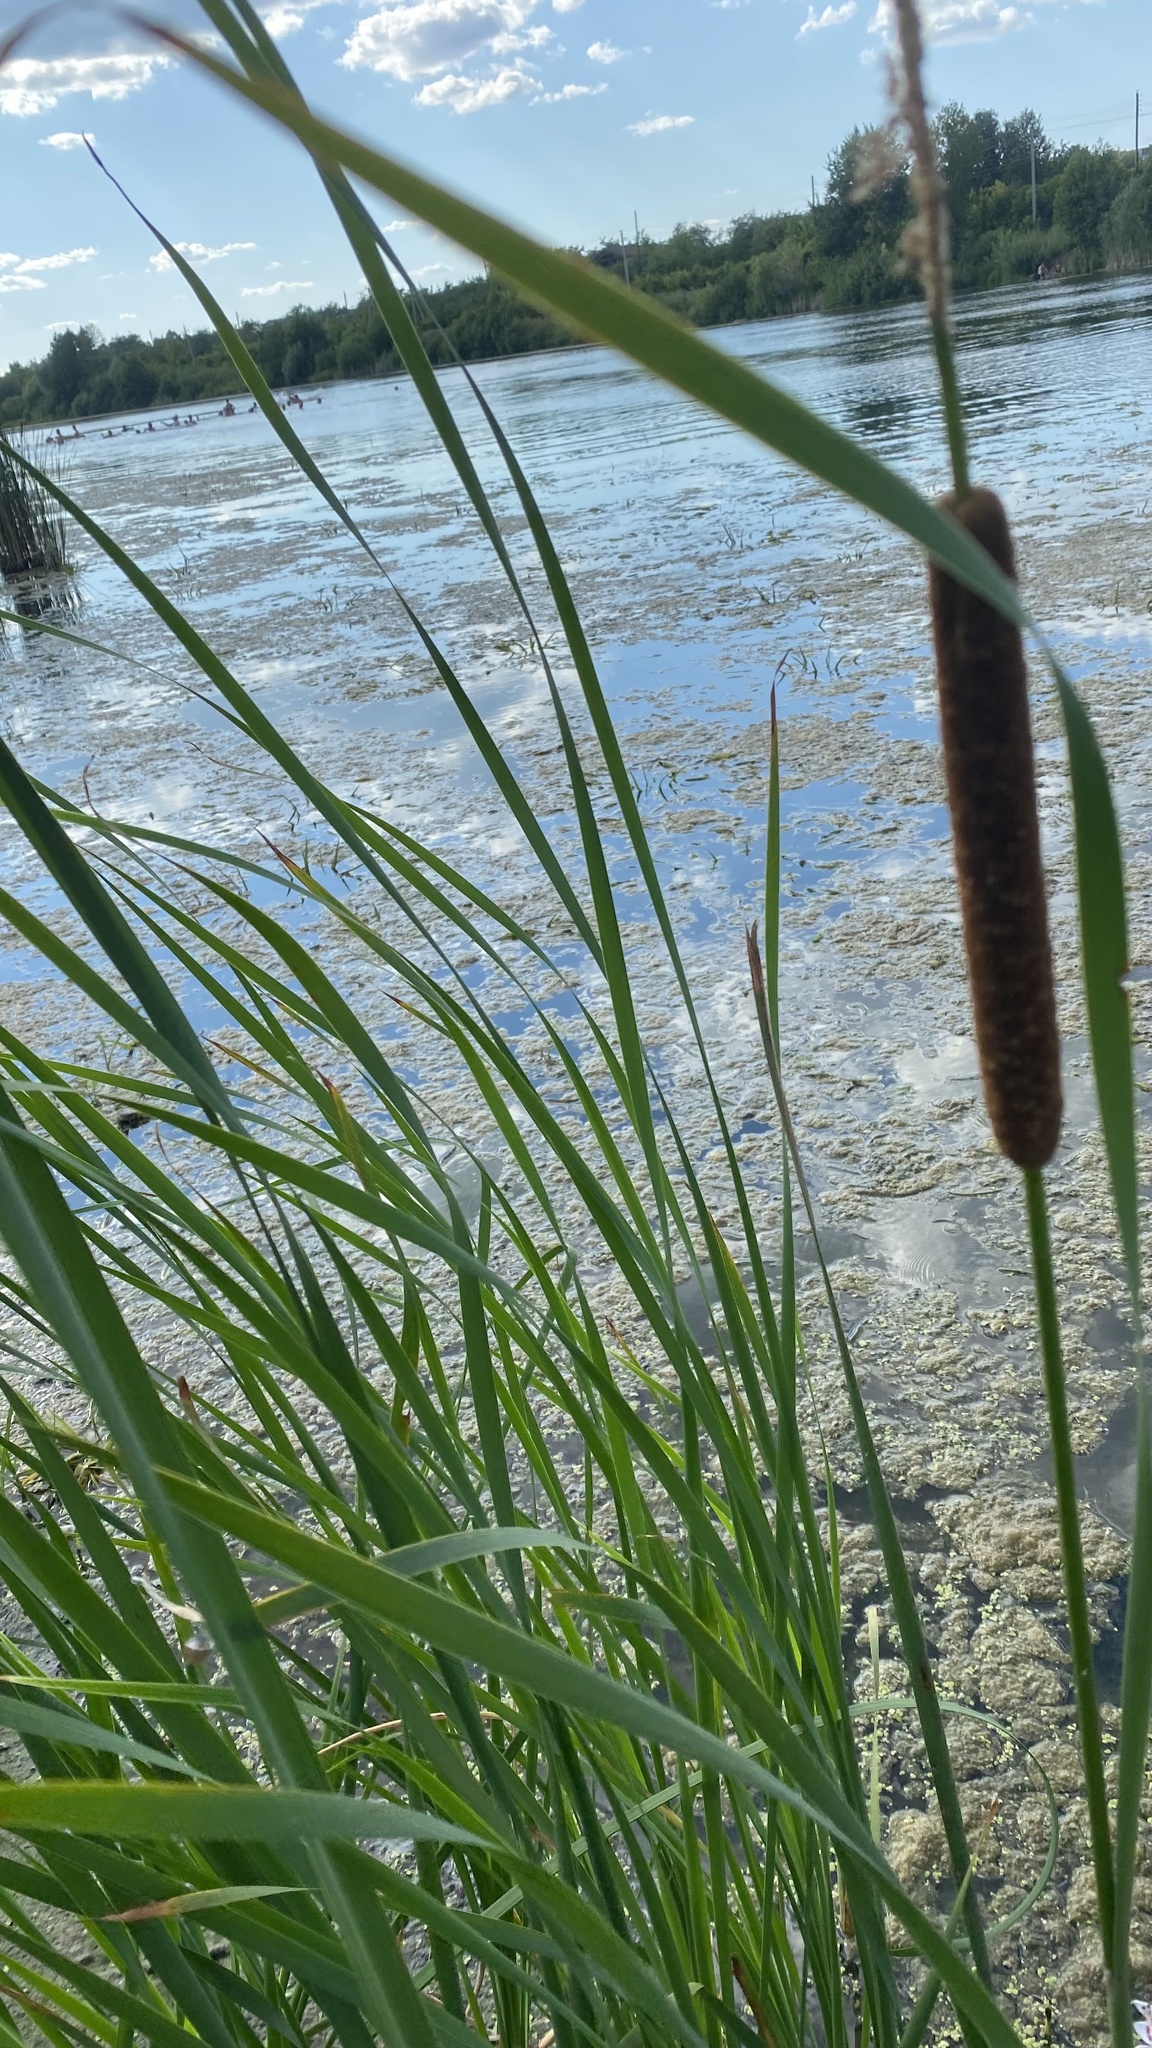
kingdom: Plantae
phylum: Tracheophyta
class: Liliopsida
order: Poales
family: Typhaceae
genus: Typha
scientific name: Typha angustifolia
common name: Lesser bulrush
